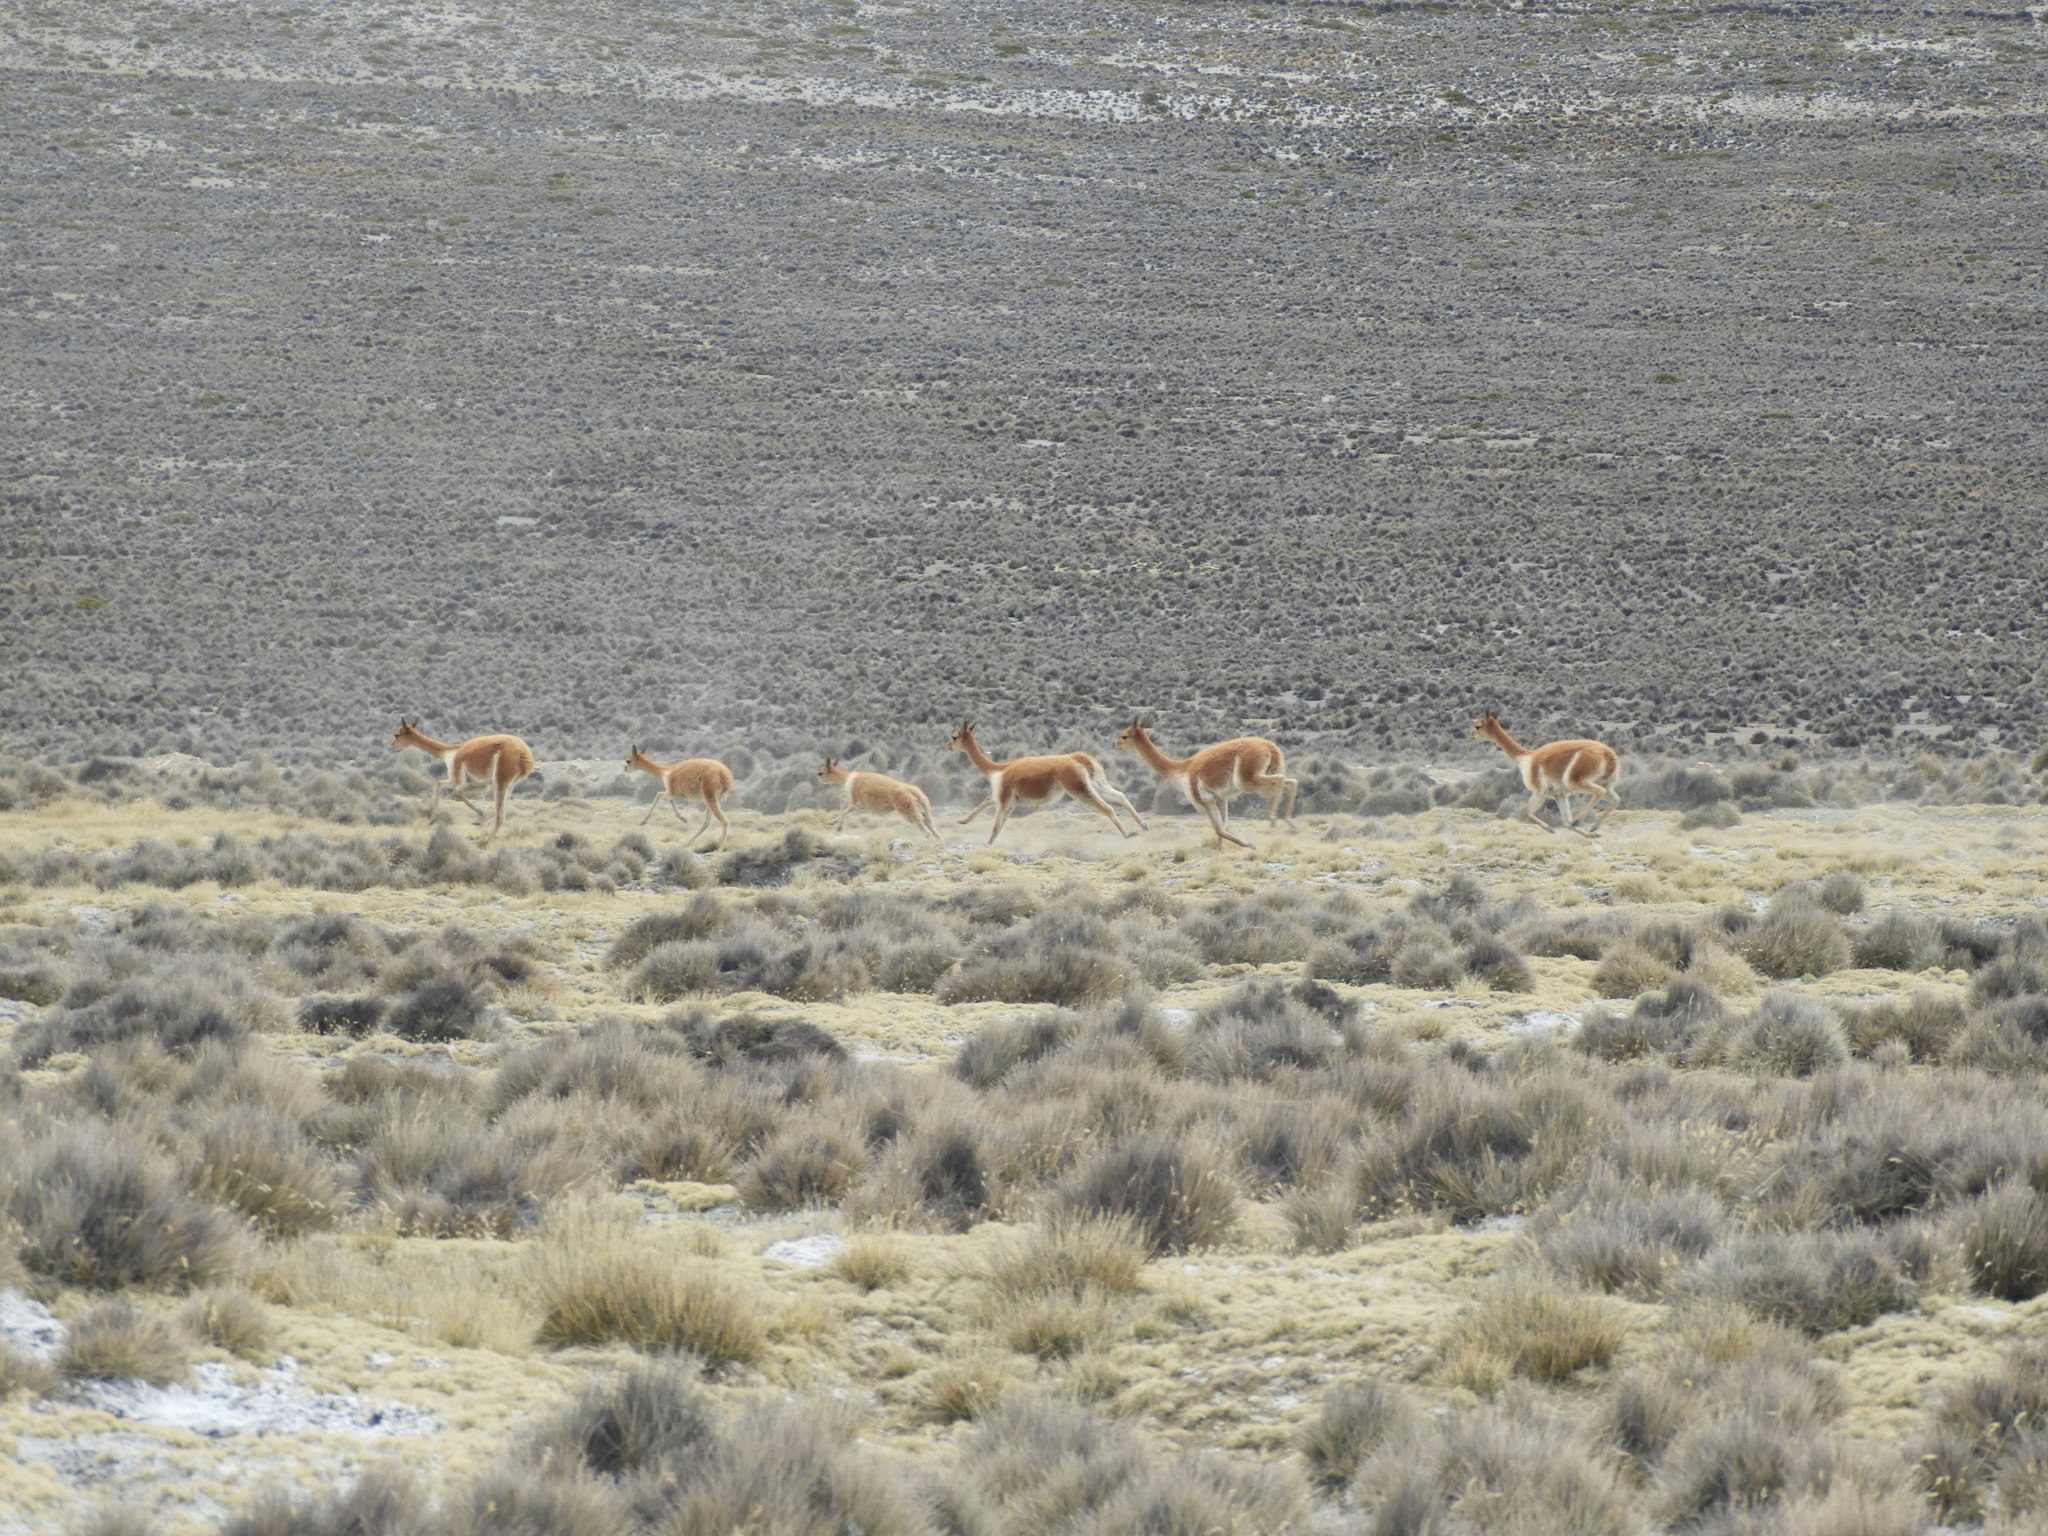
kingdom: Animalia
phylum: Chordata
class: Mammalia
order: Artiodactyla
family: Camelidae
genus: Vicugna
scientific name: Vicugna vicugna
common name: Vicugna
